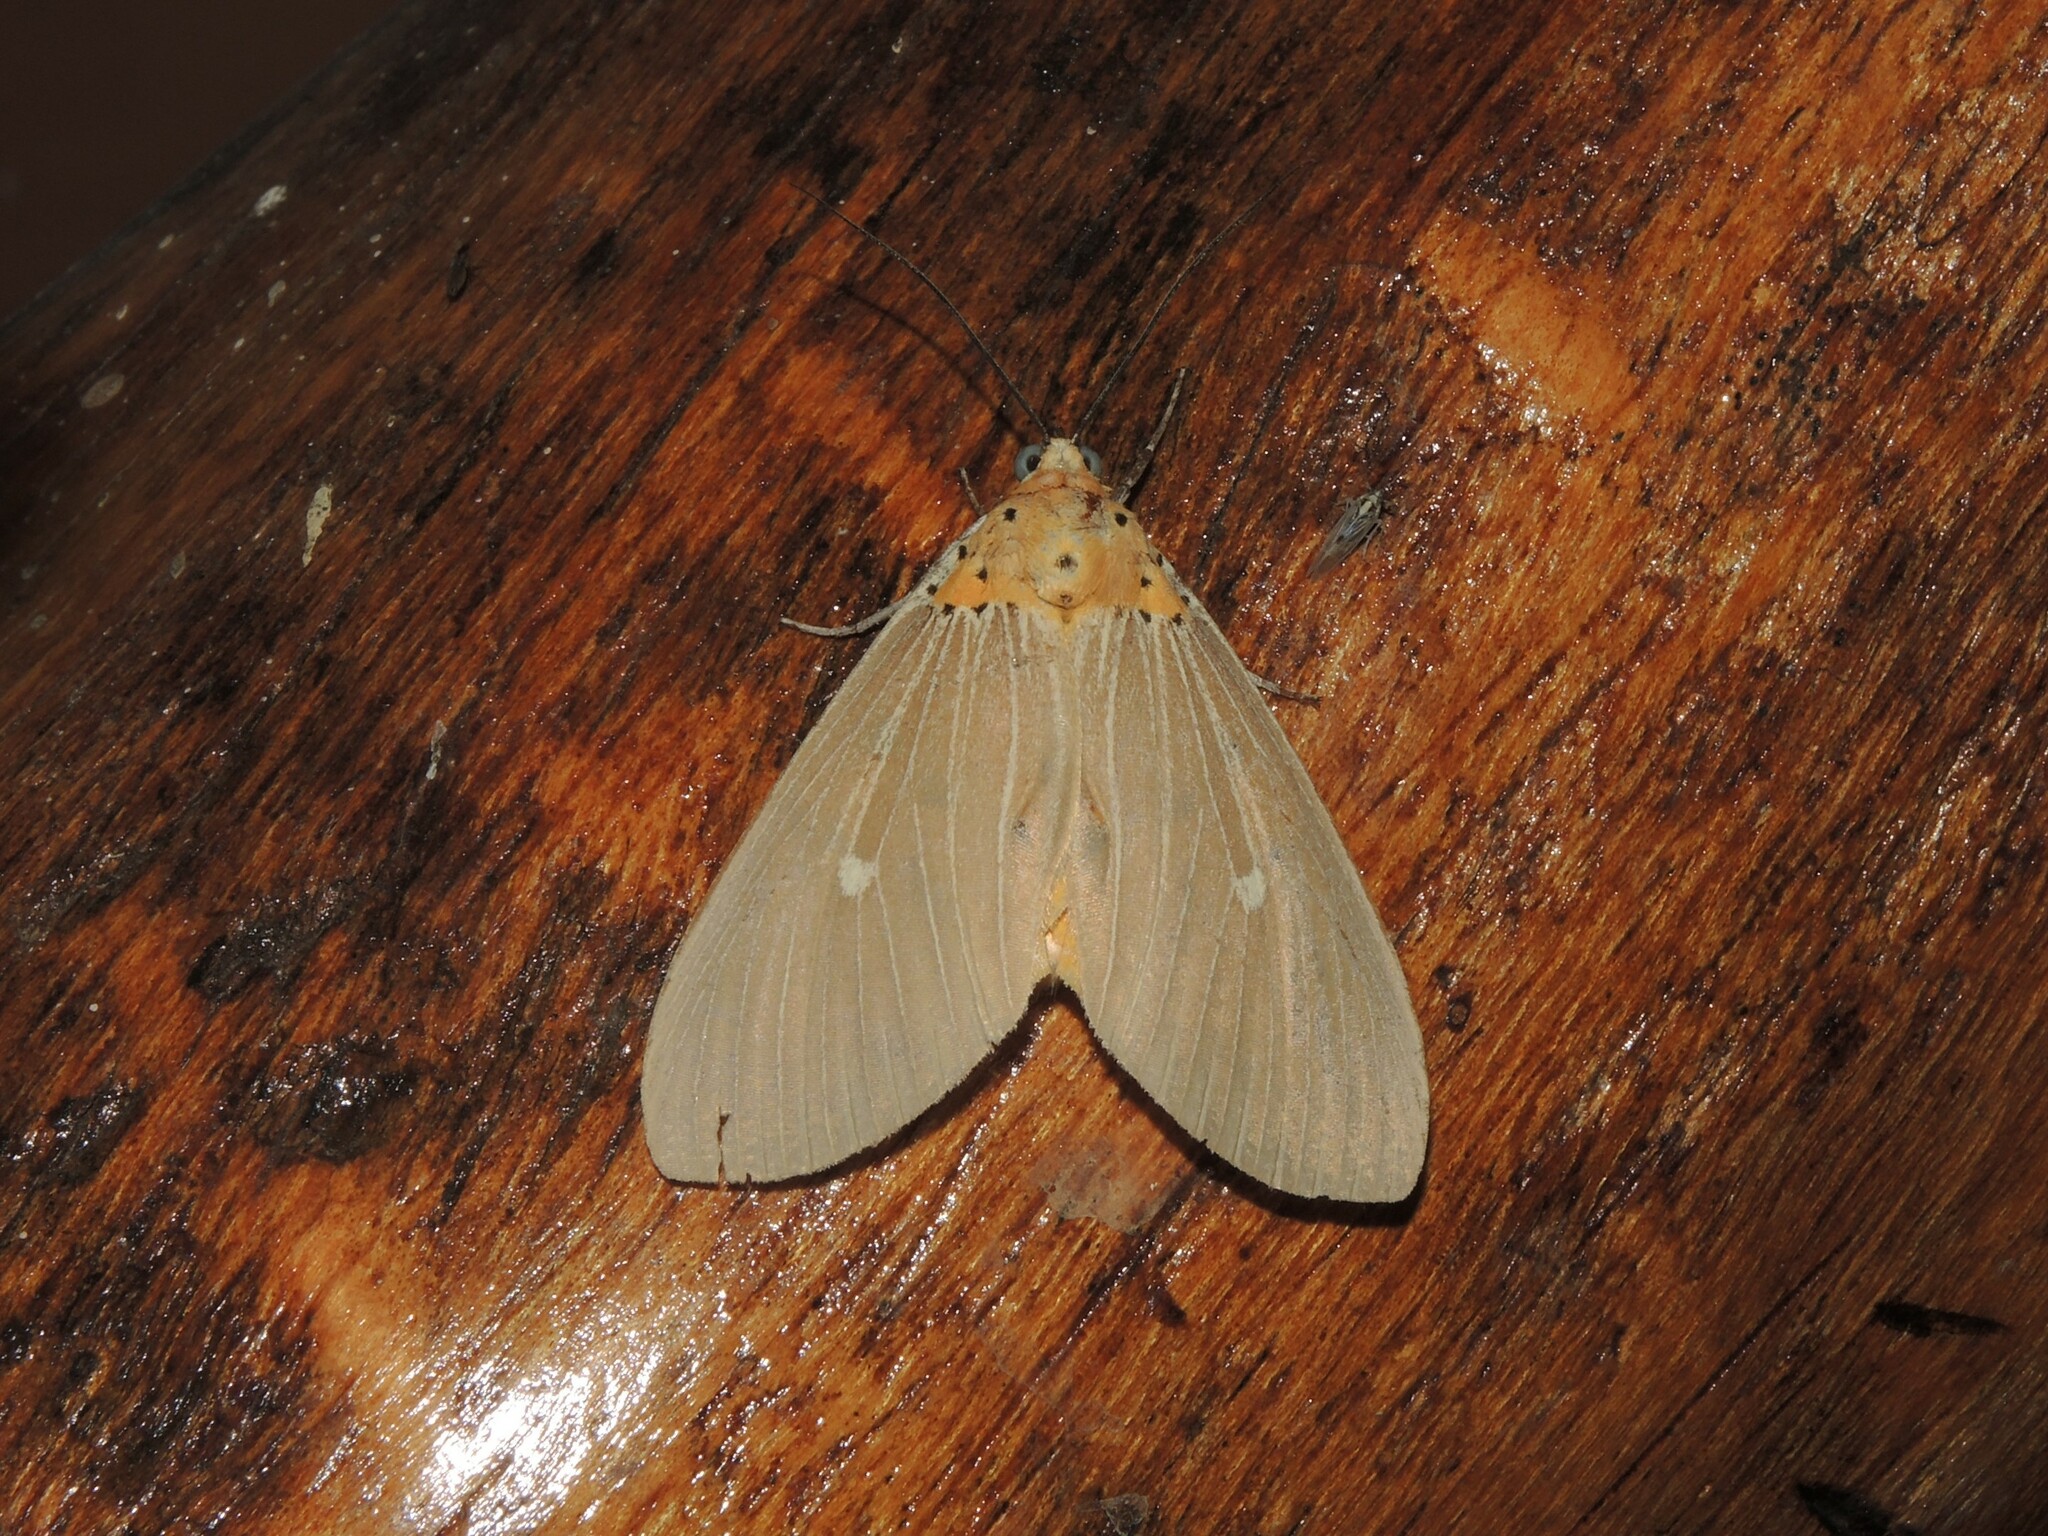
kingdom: Animalia
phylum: Arthropoda
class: Insecta
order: Lepidoptera
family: Erebidae
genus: Asota
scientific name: Asota caricae
